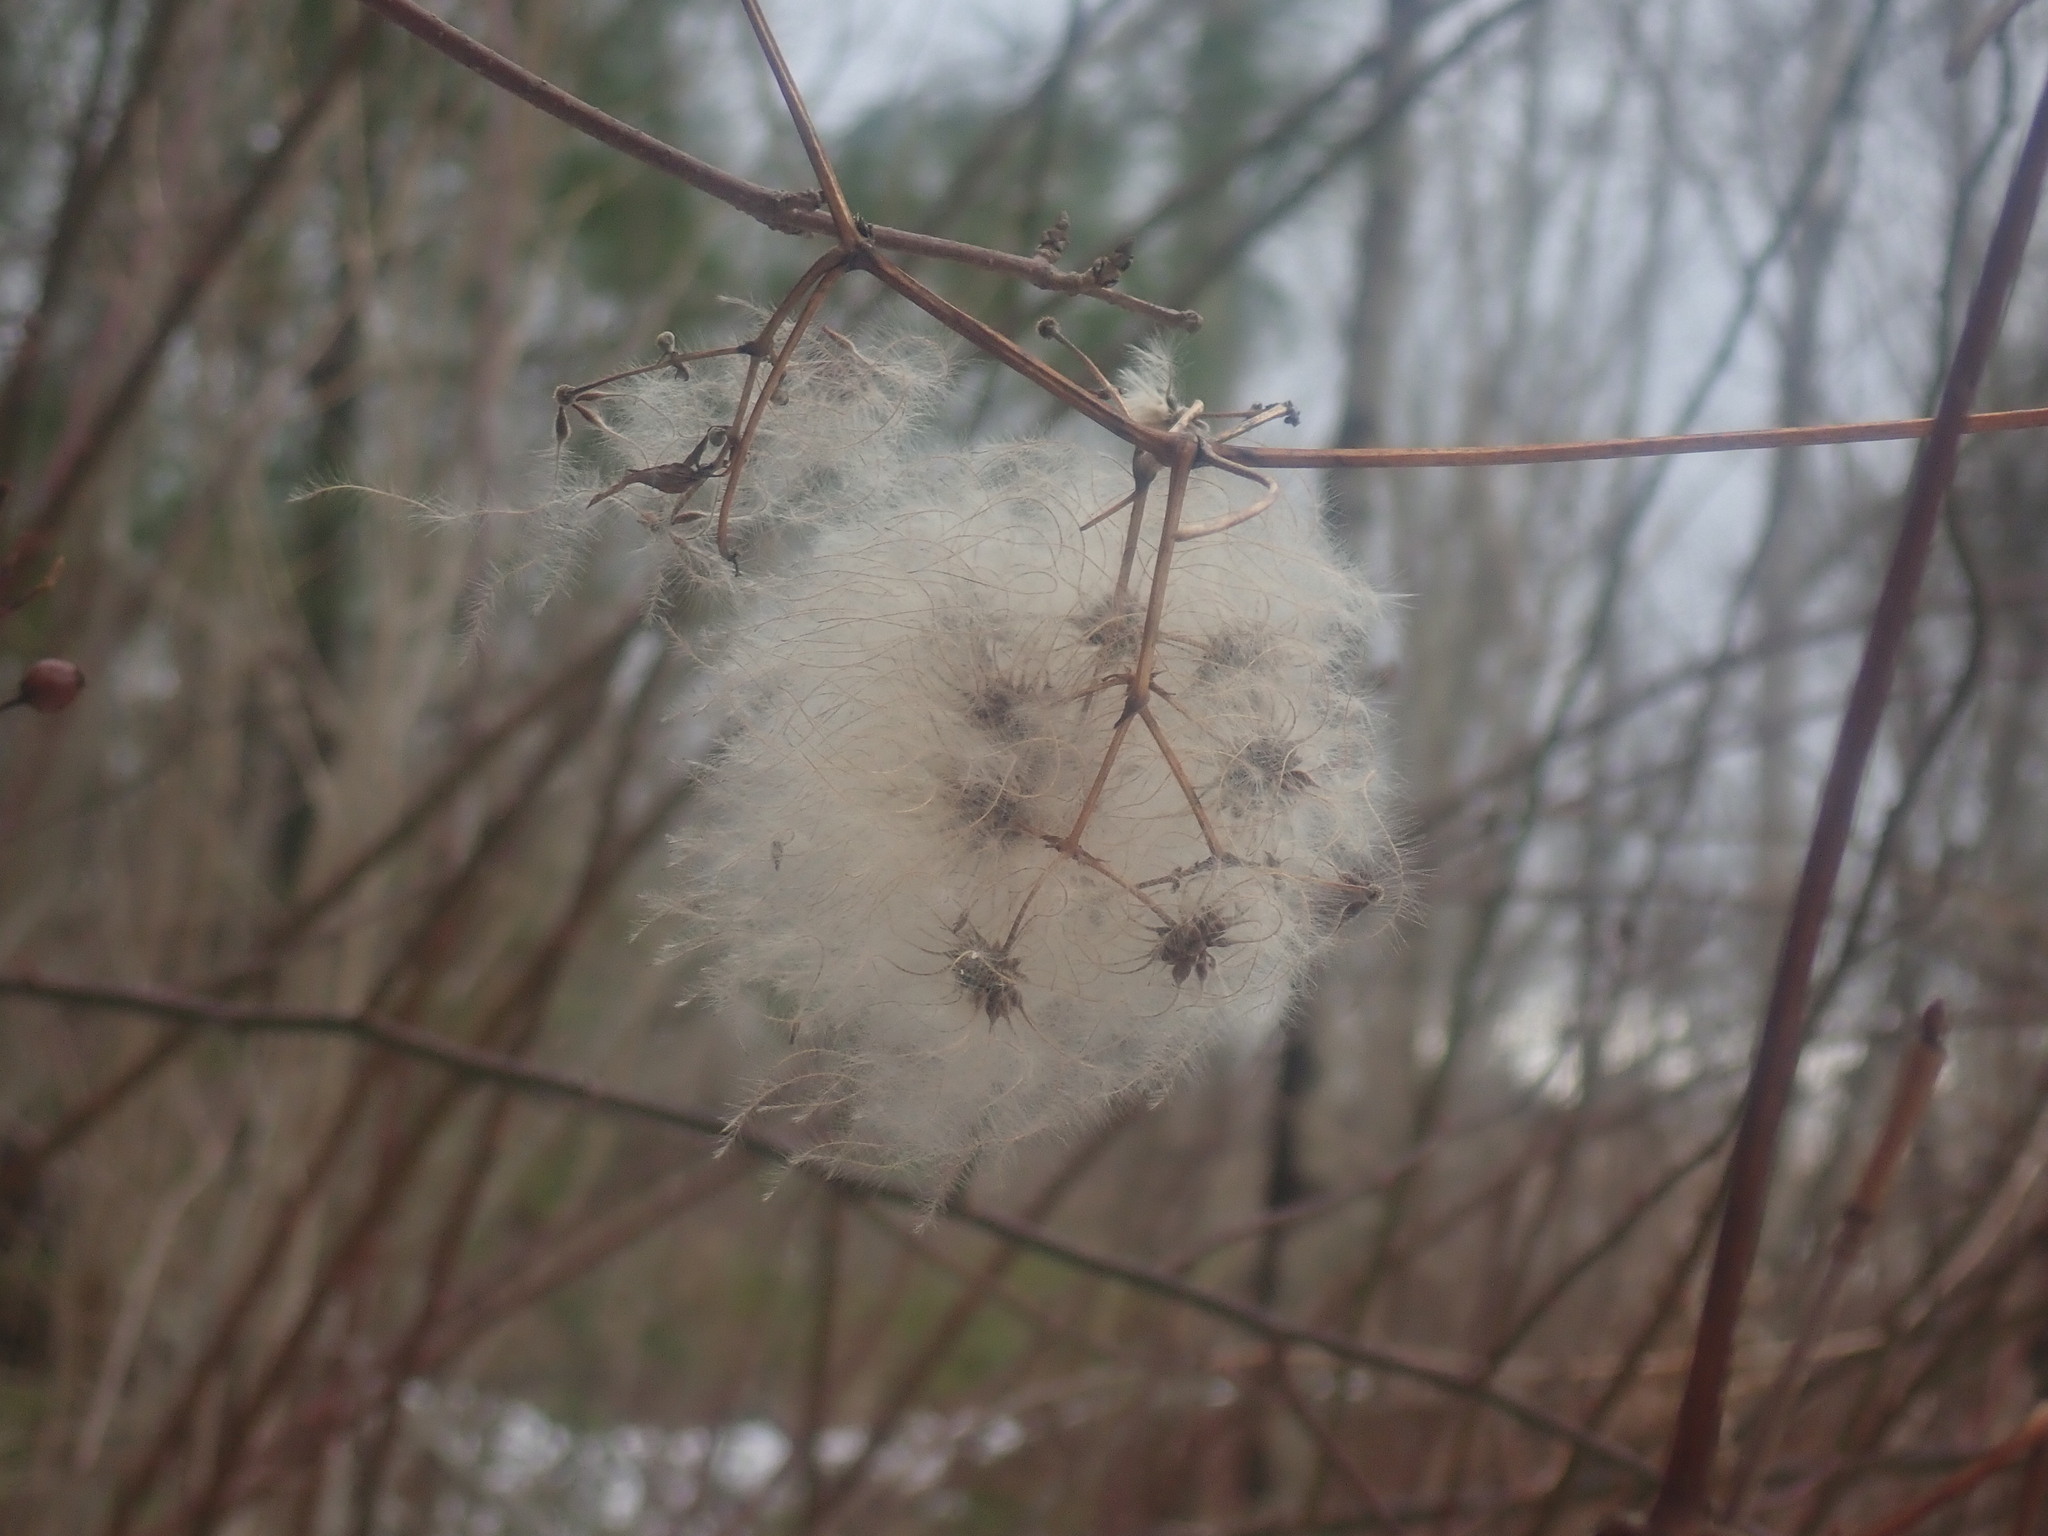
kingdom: Plantae
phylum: Tracheophyta
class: Magnoliopsida
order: Ranunculales
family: Ranunculaceae
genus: Clematis
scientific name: Clematis virginiana
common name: Virgin's-bower
